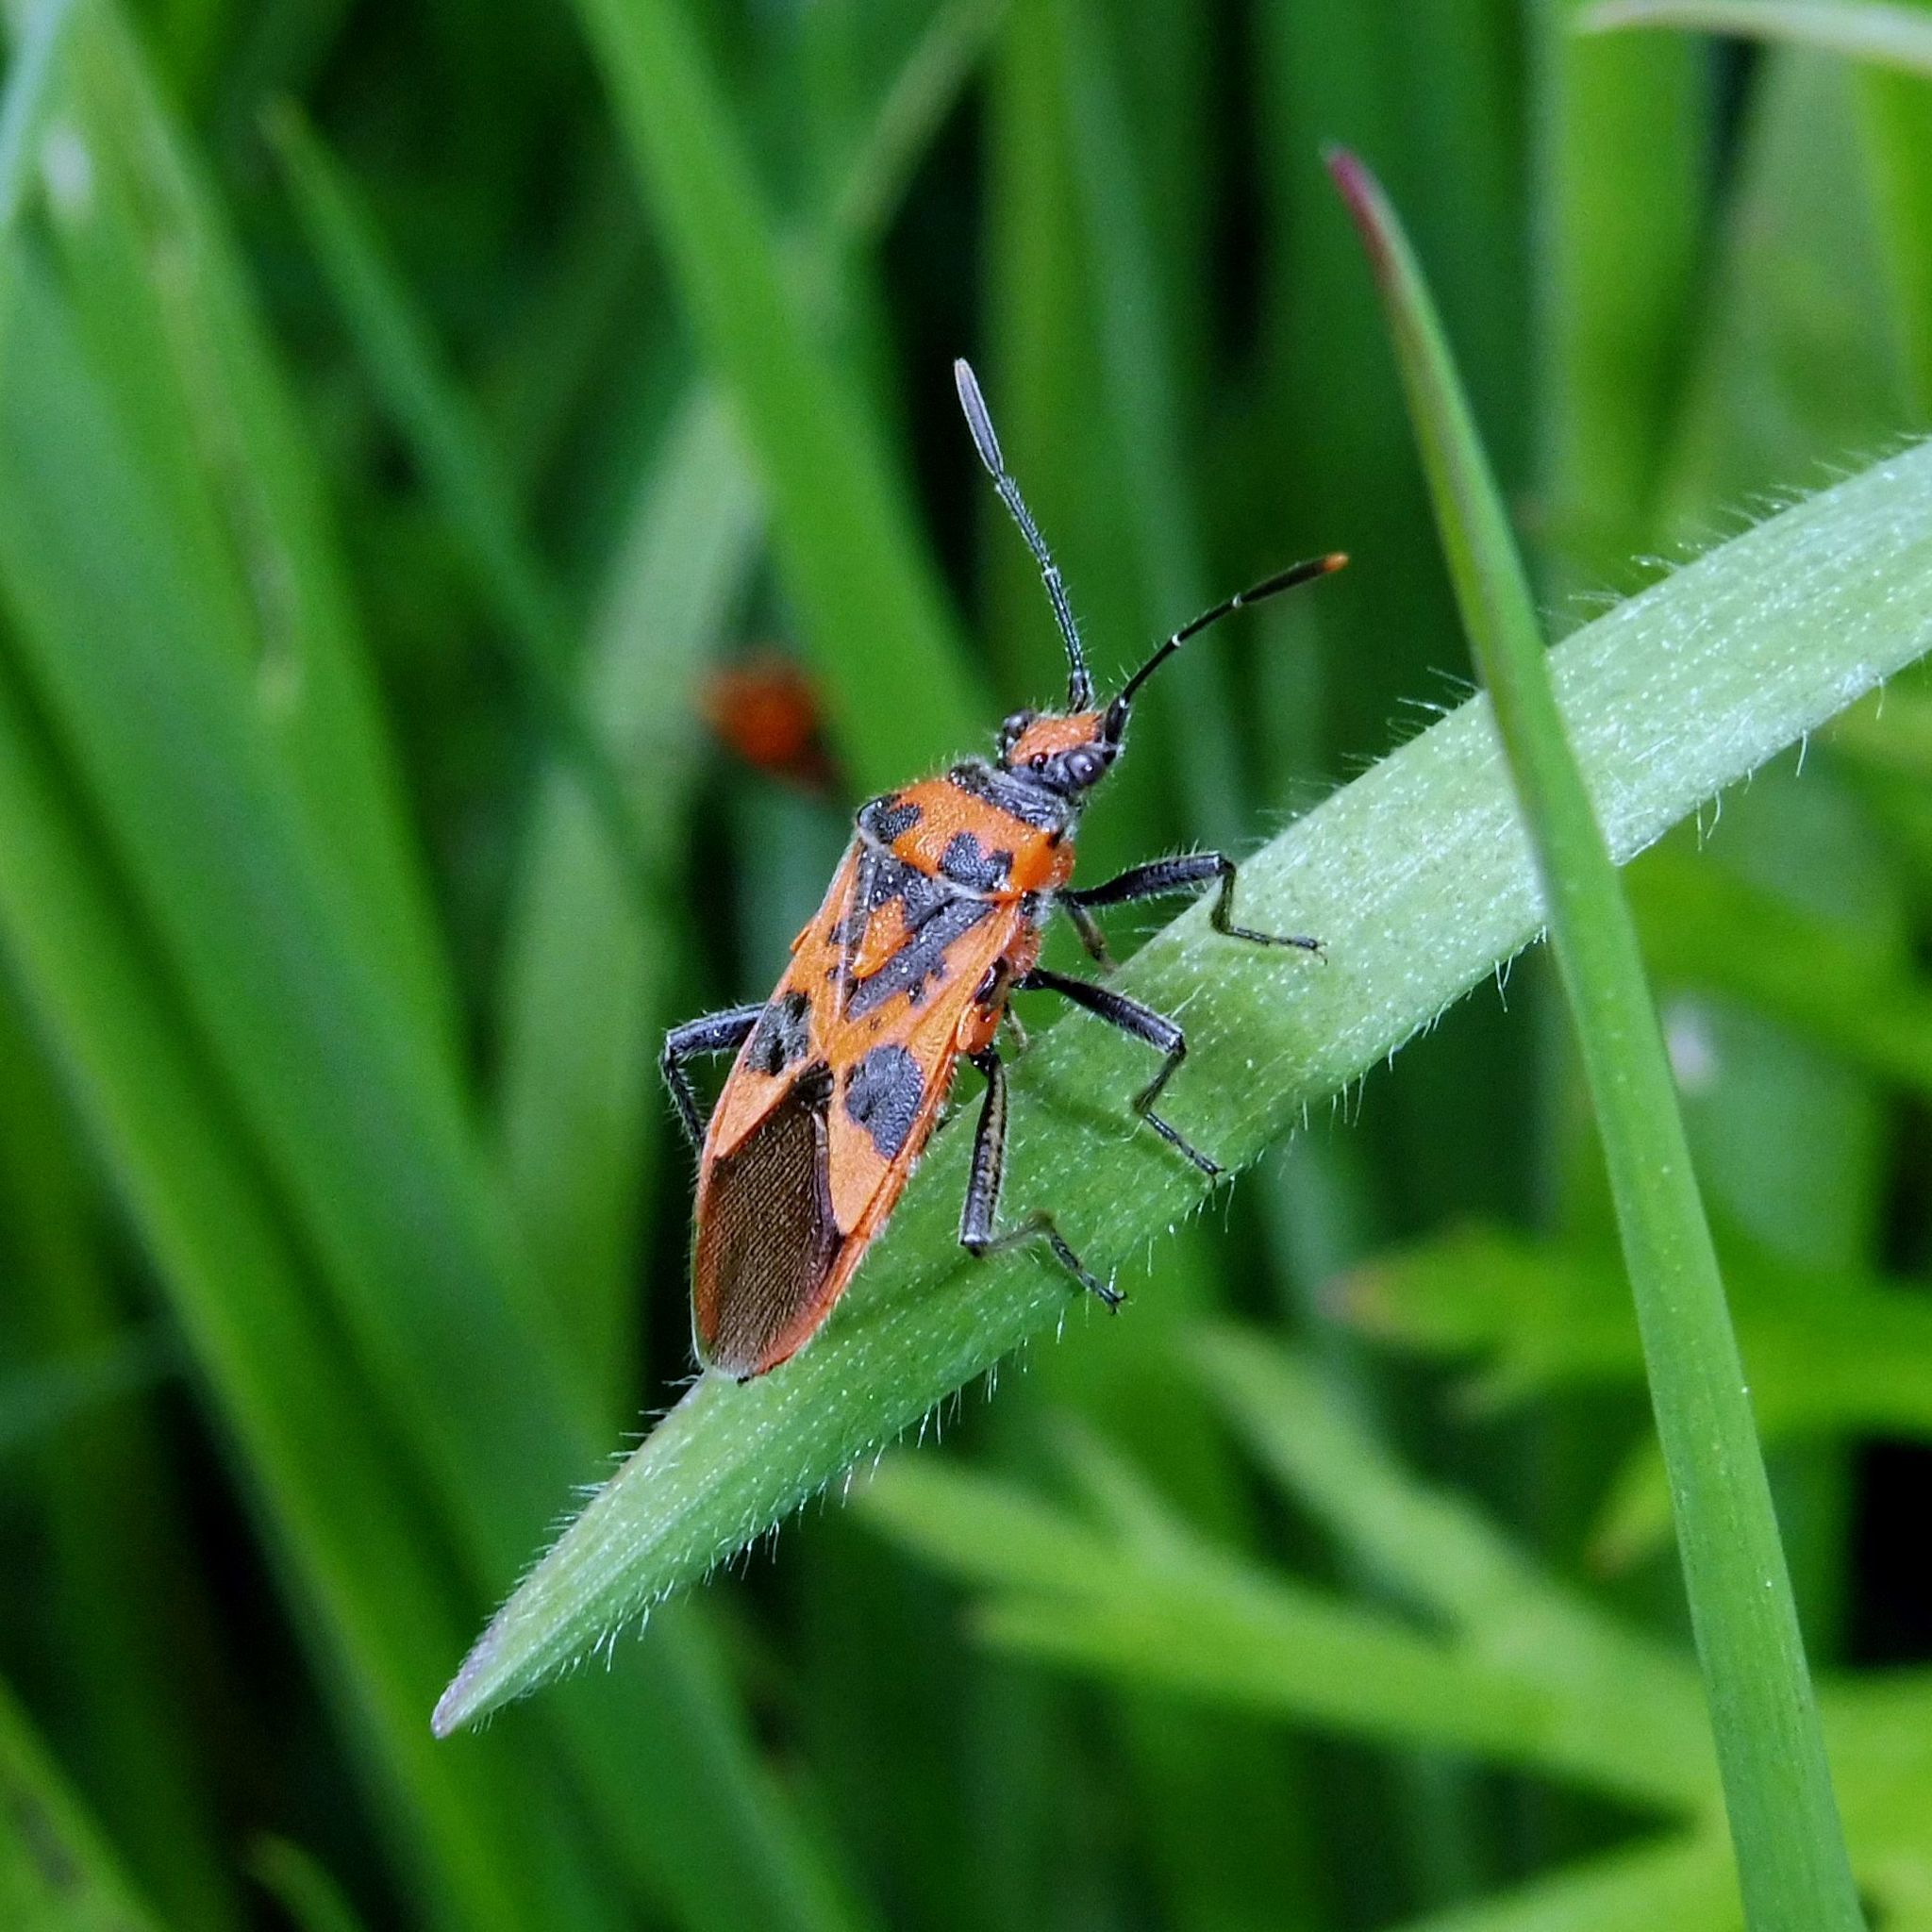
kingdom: Animalia
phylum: Arthropoda
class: Insecta
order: Hemiptera
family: Rhopalidae
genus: Corizus
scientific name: Corizus hyoscyami
